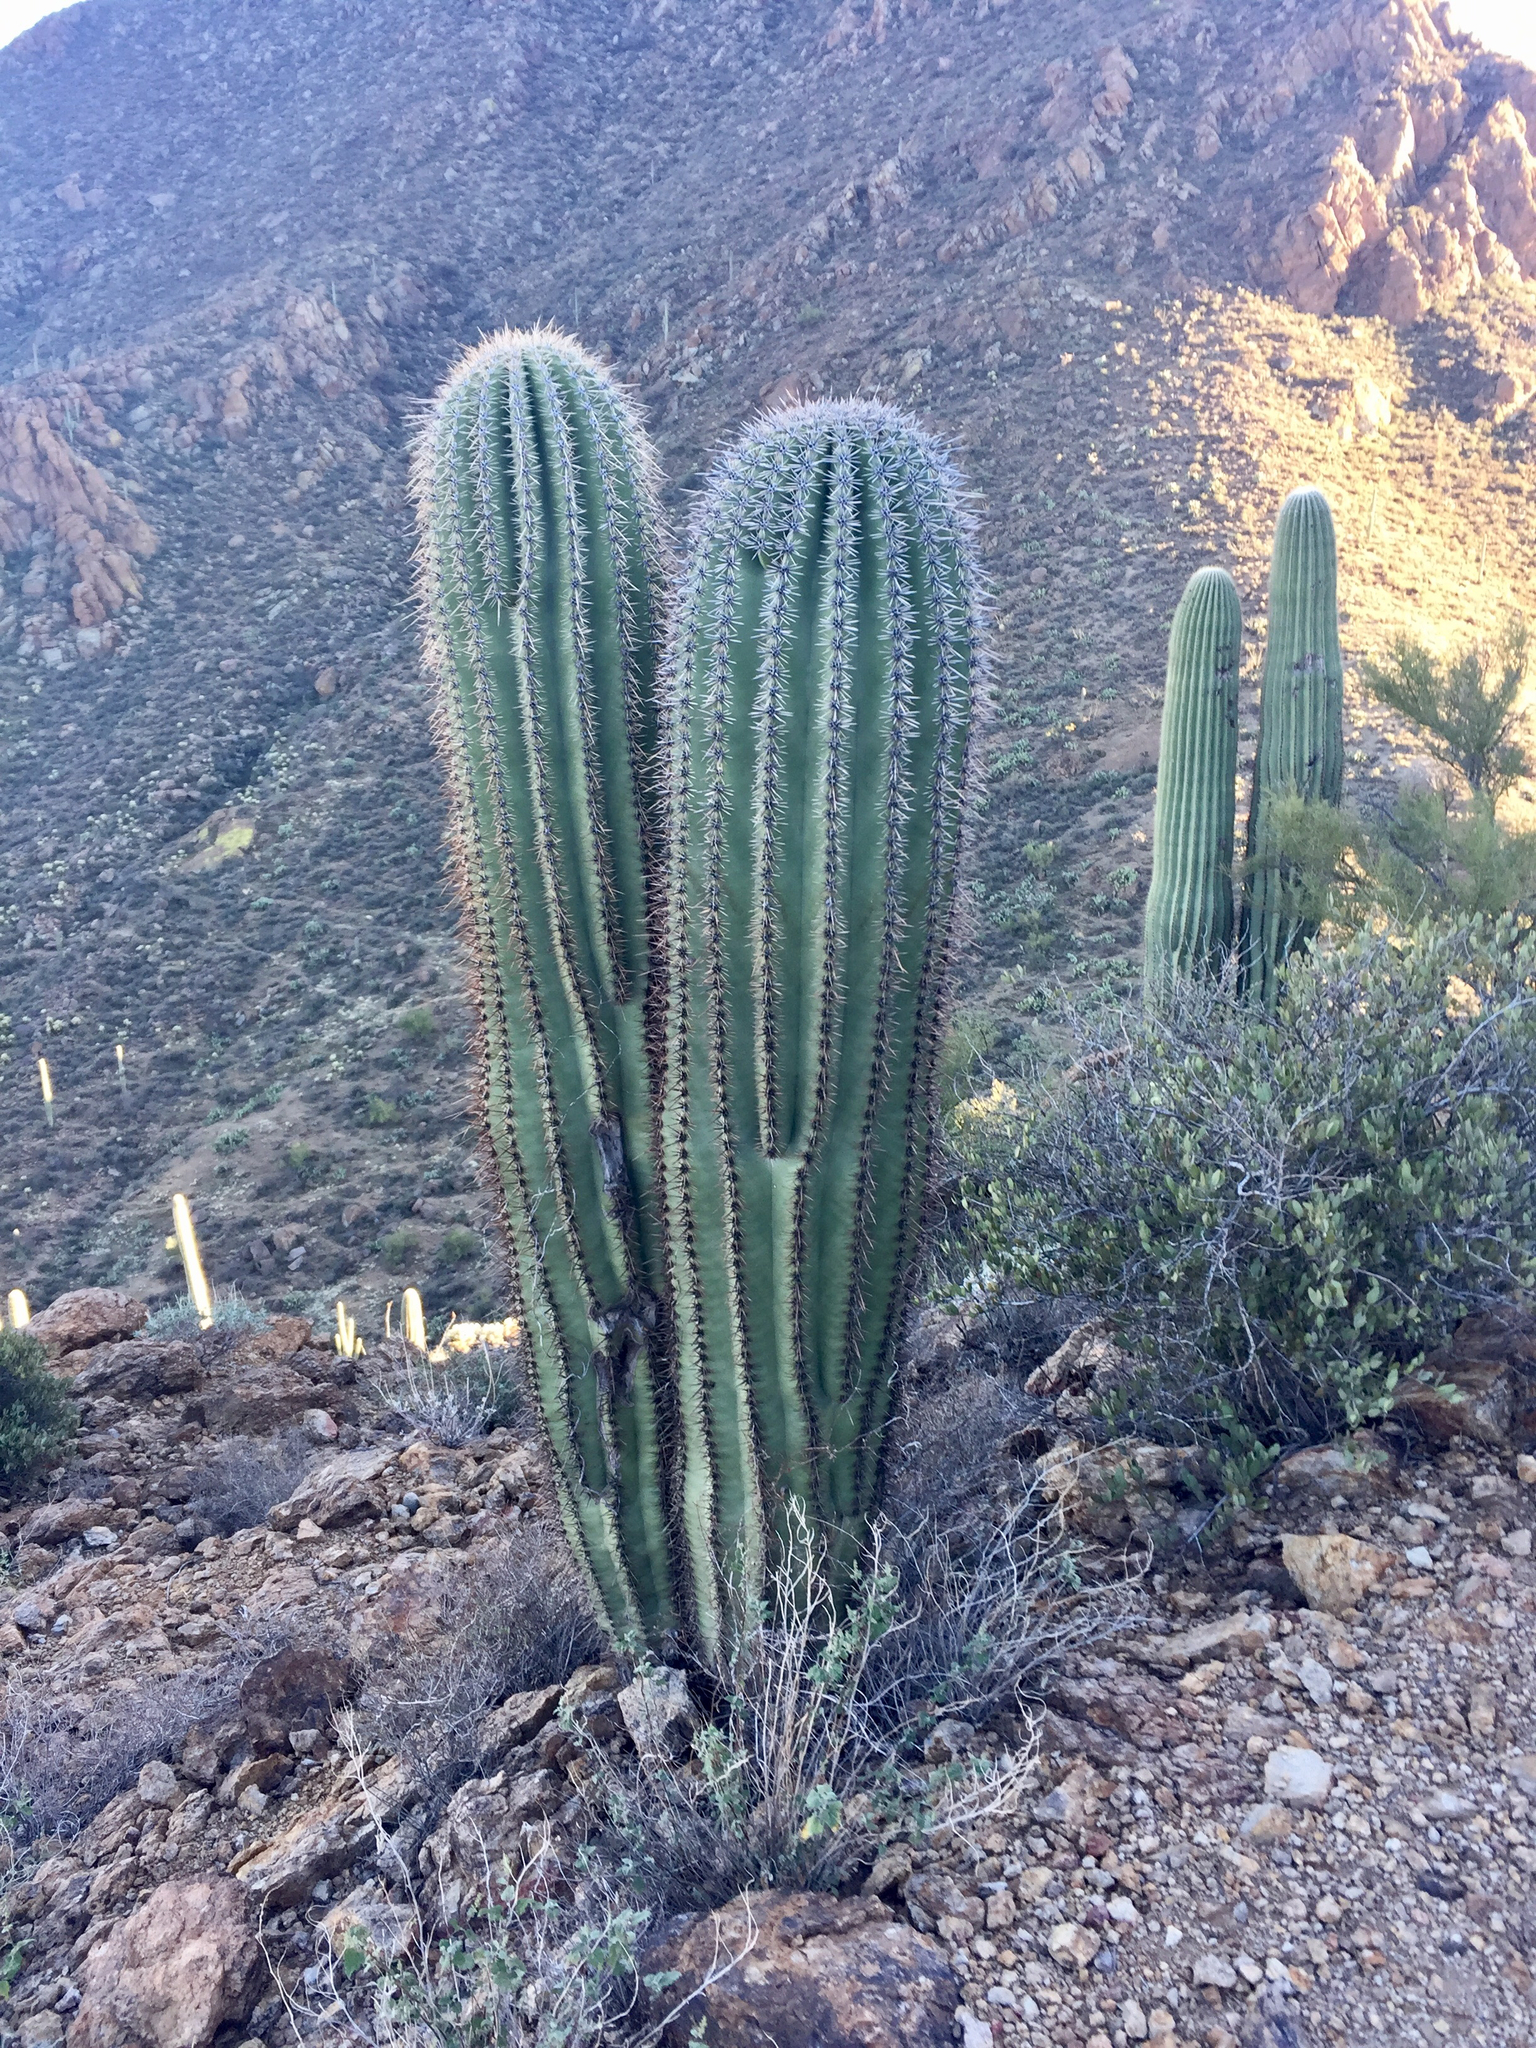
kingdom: Plantae
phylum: Tracheophyta
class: Magnoliopsida
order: Caryophyllales
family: Cactaceae
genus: Carnegiea
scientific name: Carnegiea gigantea
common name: Saguaro
